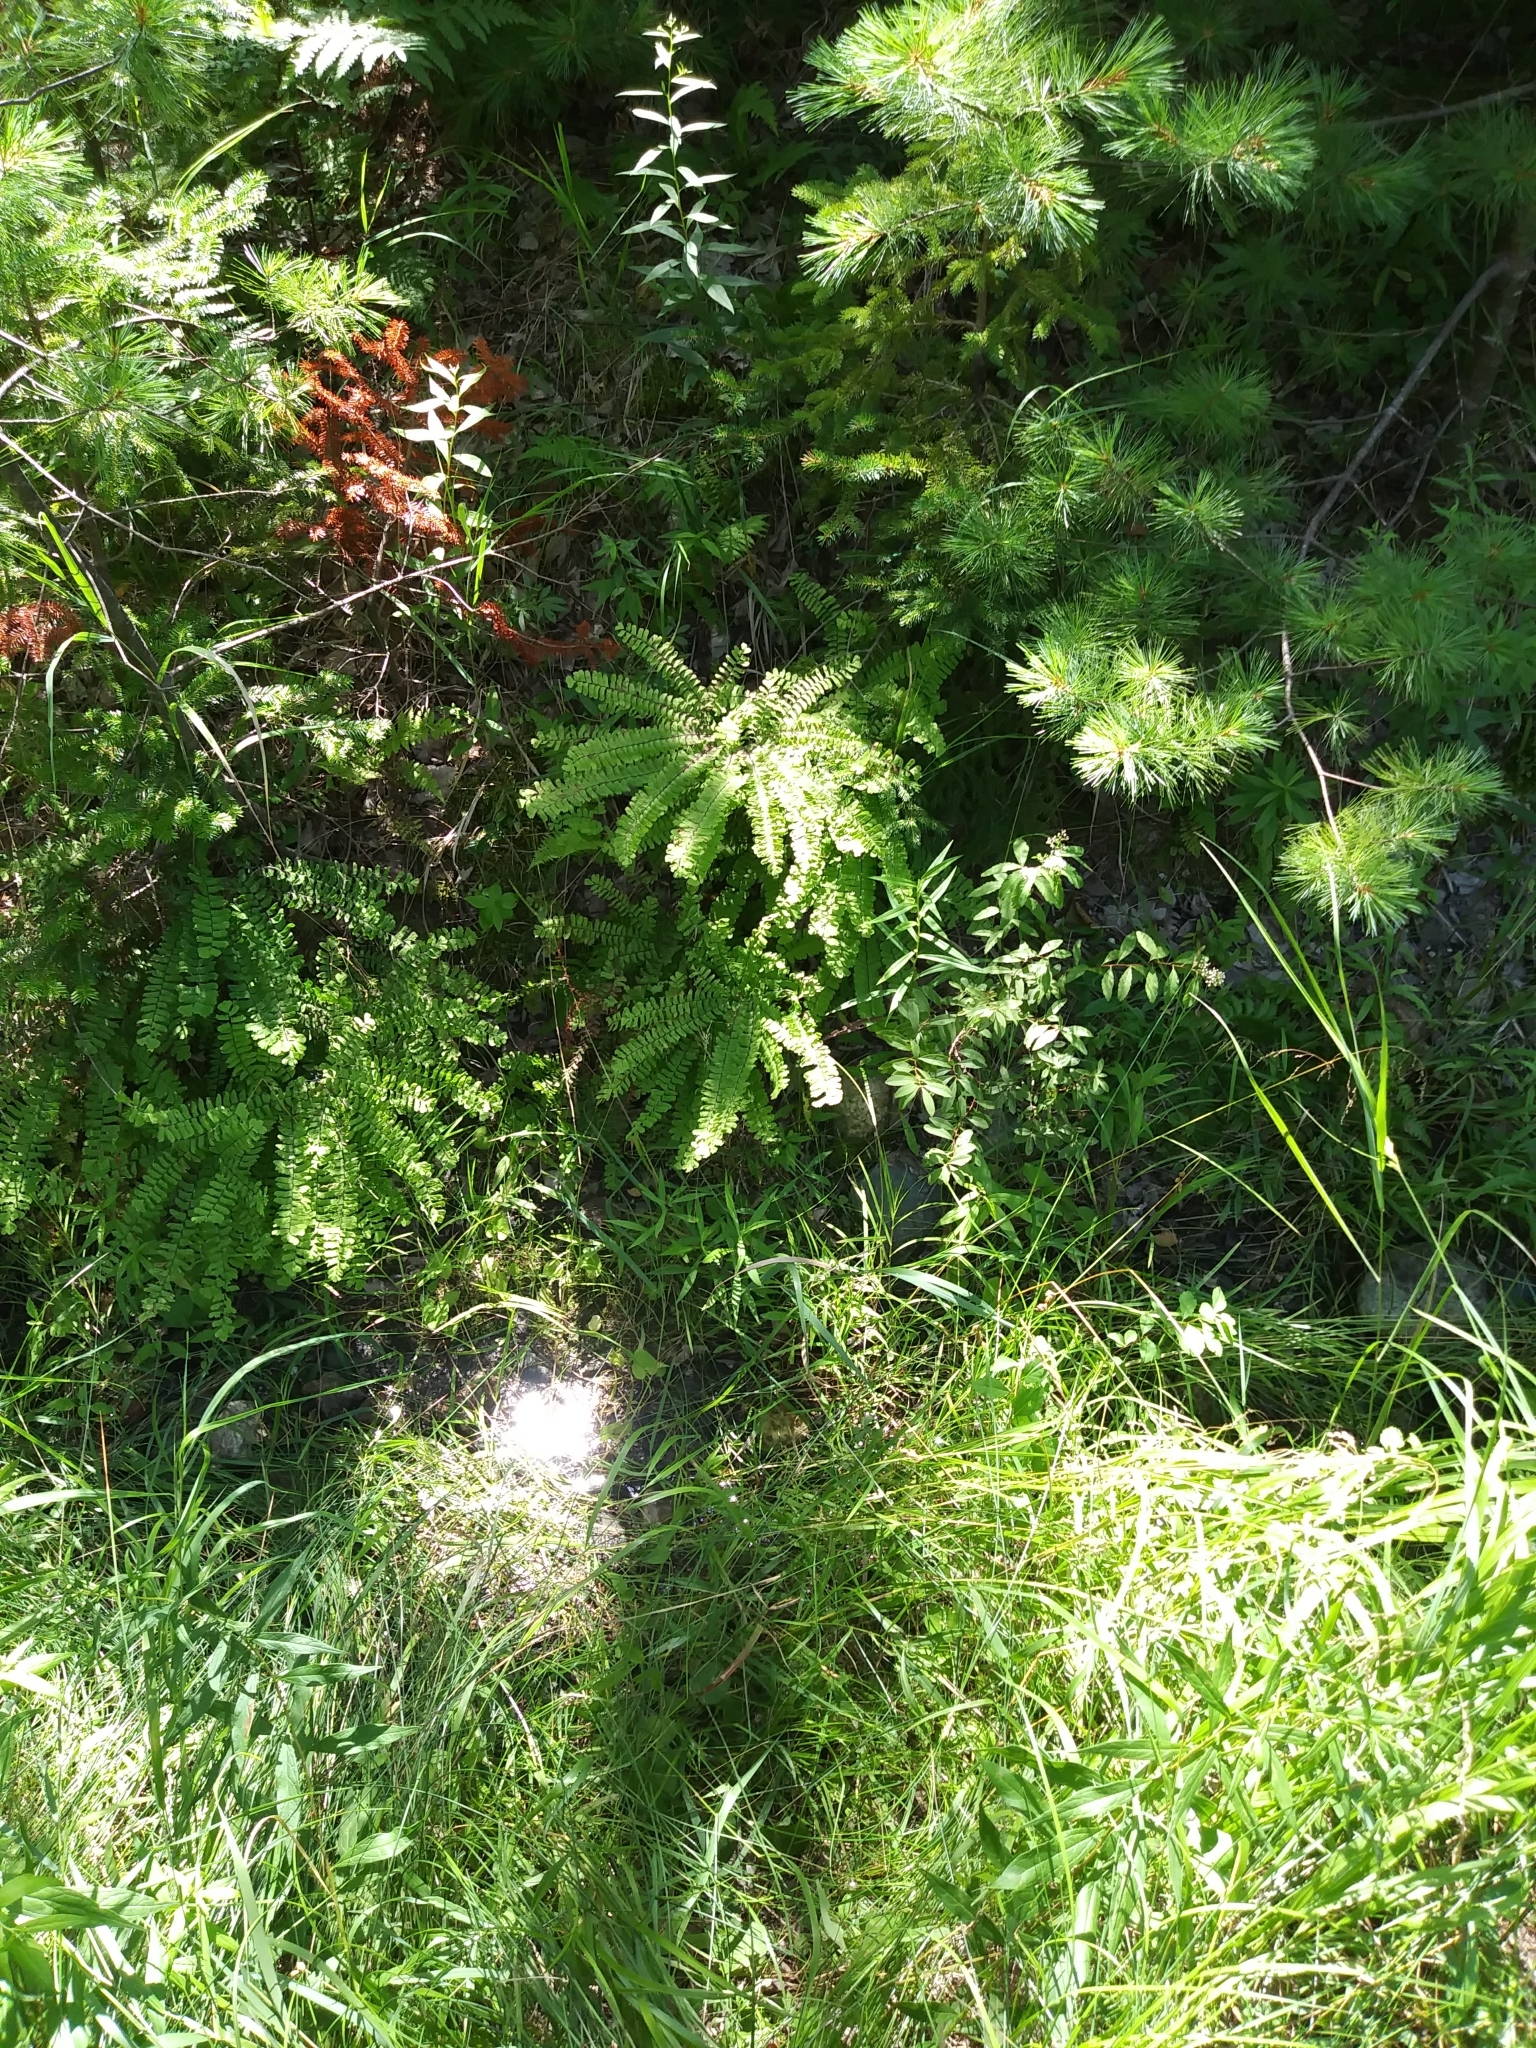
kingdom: Plantae
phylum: Tracheophyta
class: Polypodiopsida
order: Polypodiales
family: Pteridaceae
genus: Adiantum
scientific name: Adiantum viridimontanum
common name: Green mountain maidenhair
